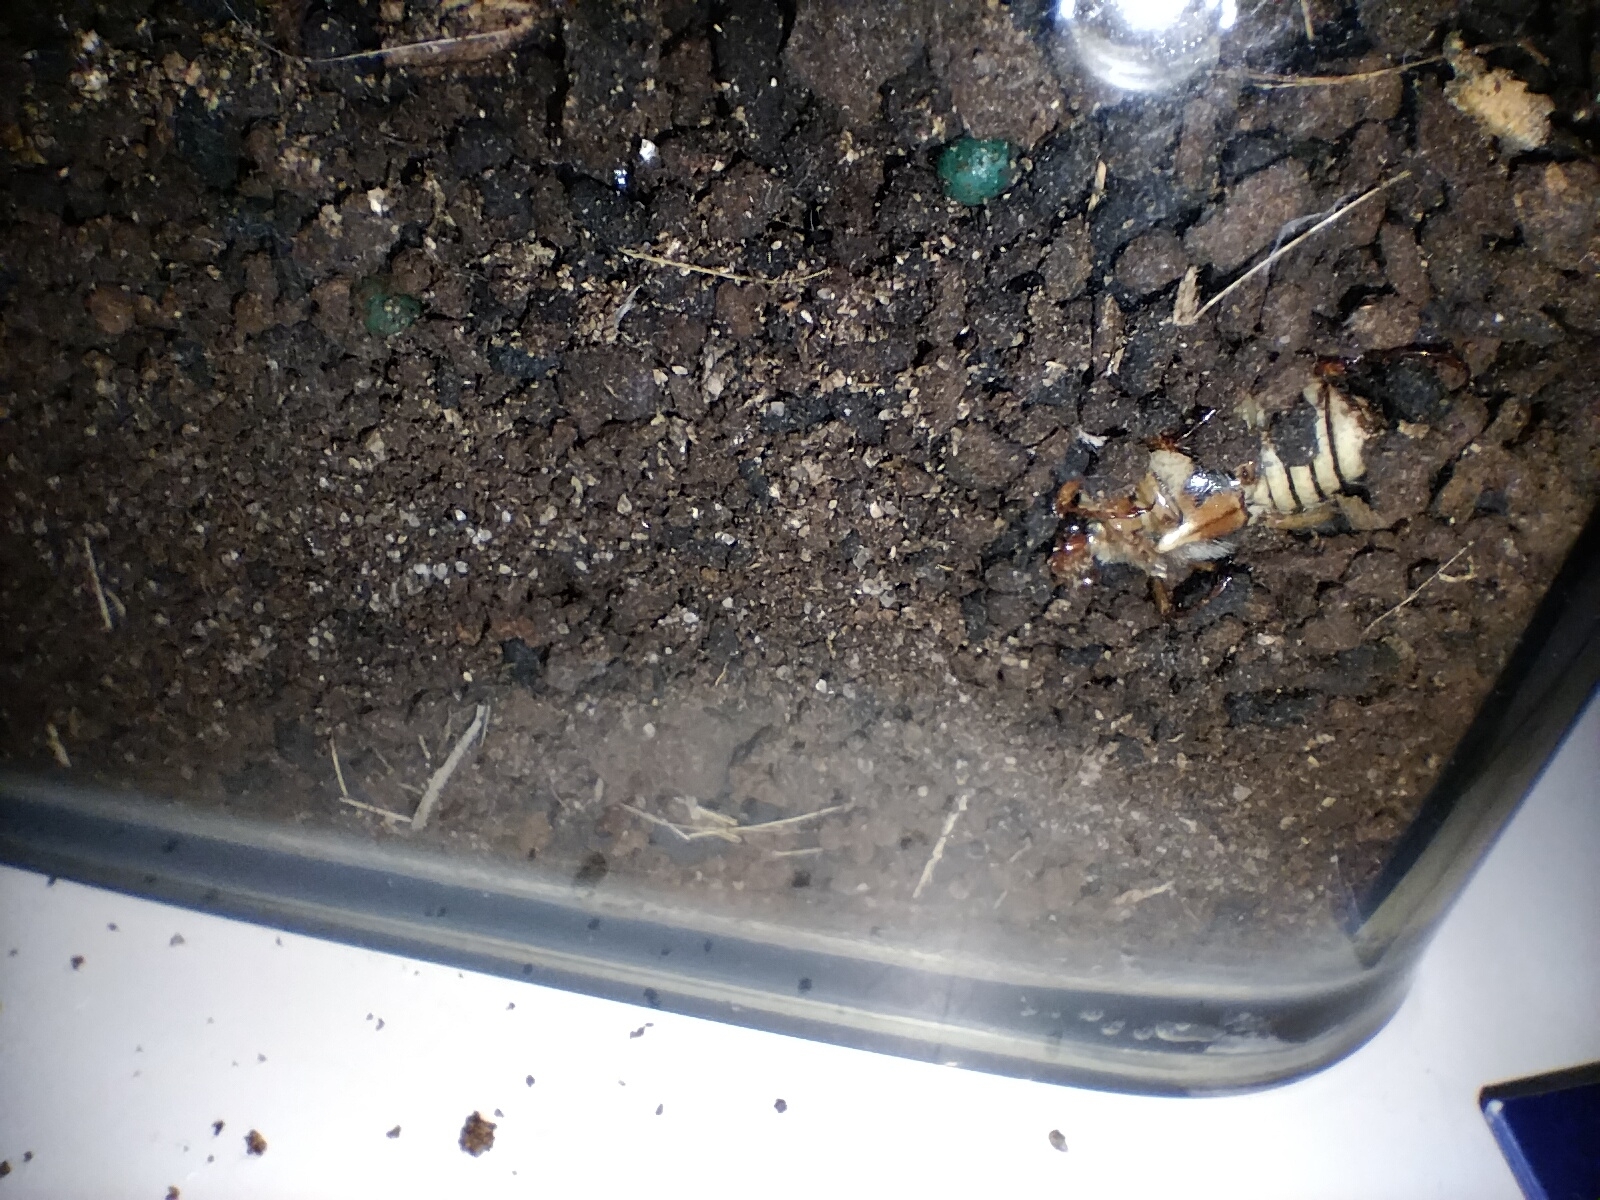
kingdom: Animalia
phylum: Arthropoda
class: Insecta
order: Coleoptera
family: Scarabaeidae
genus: Neorrhina
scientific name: Neorrhina punctatum
